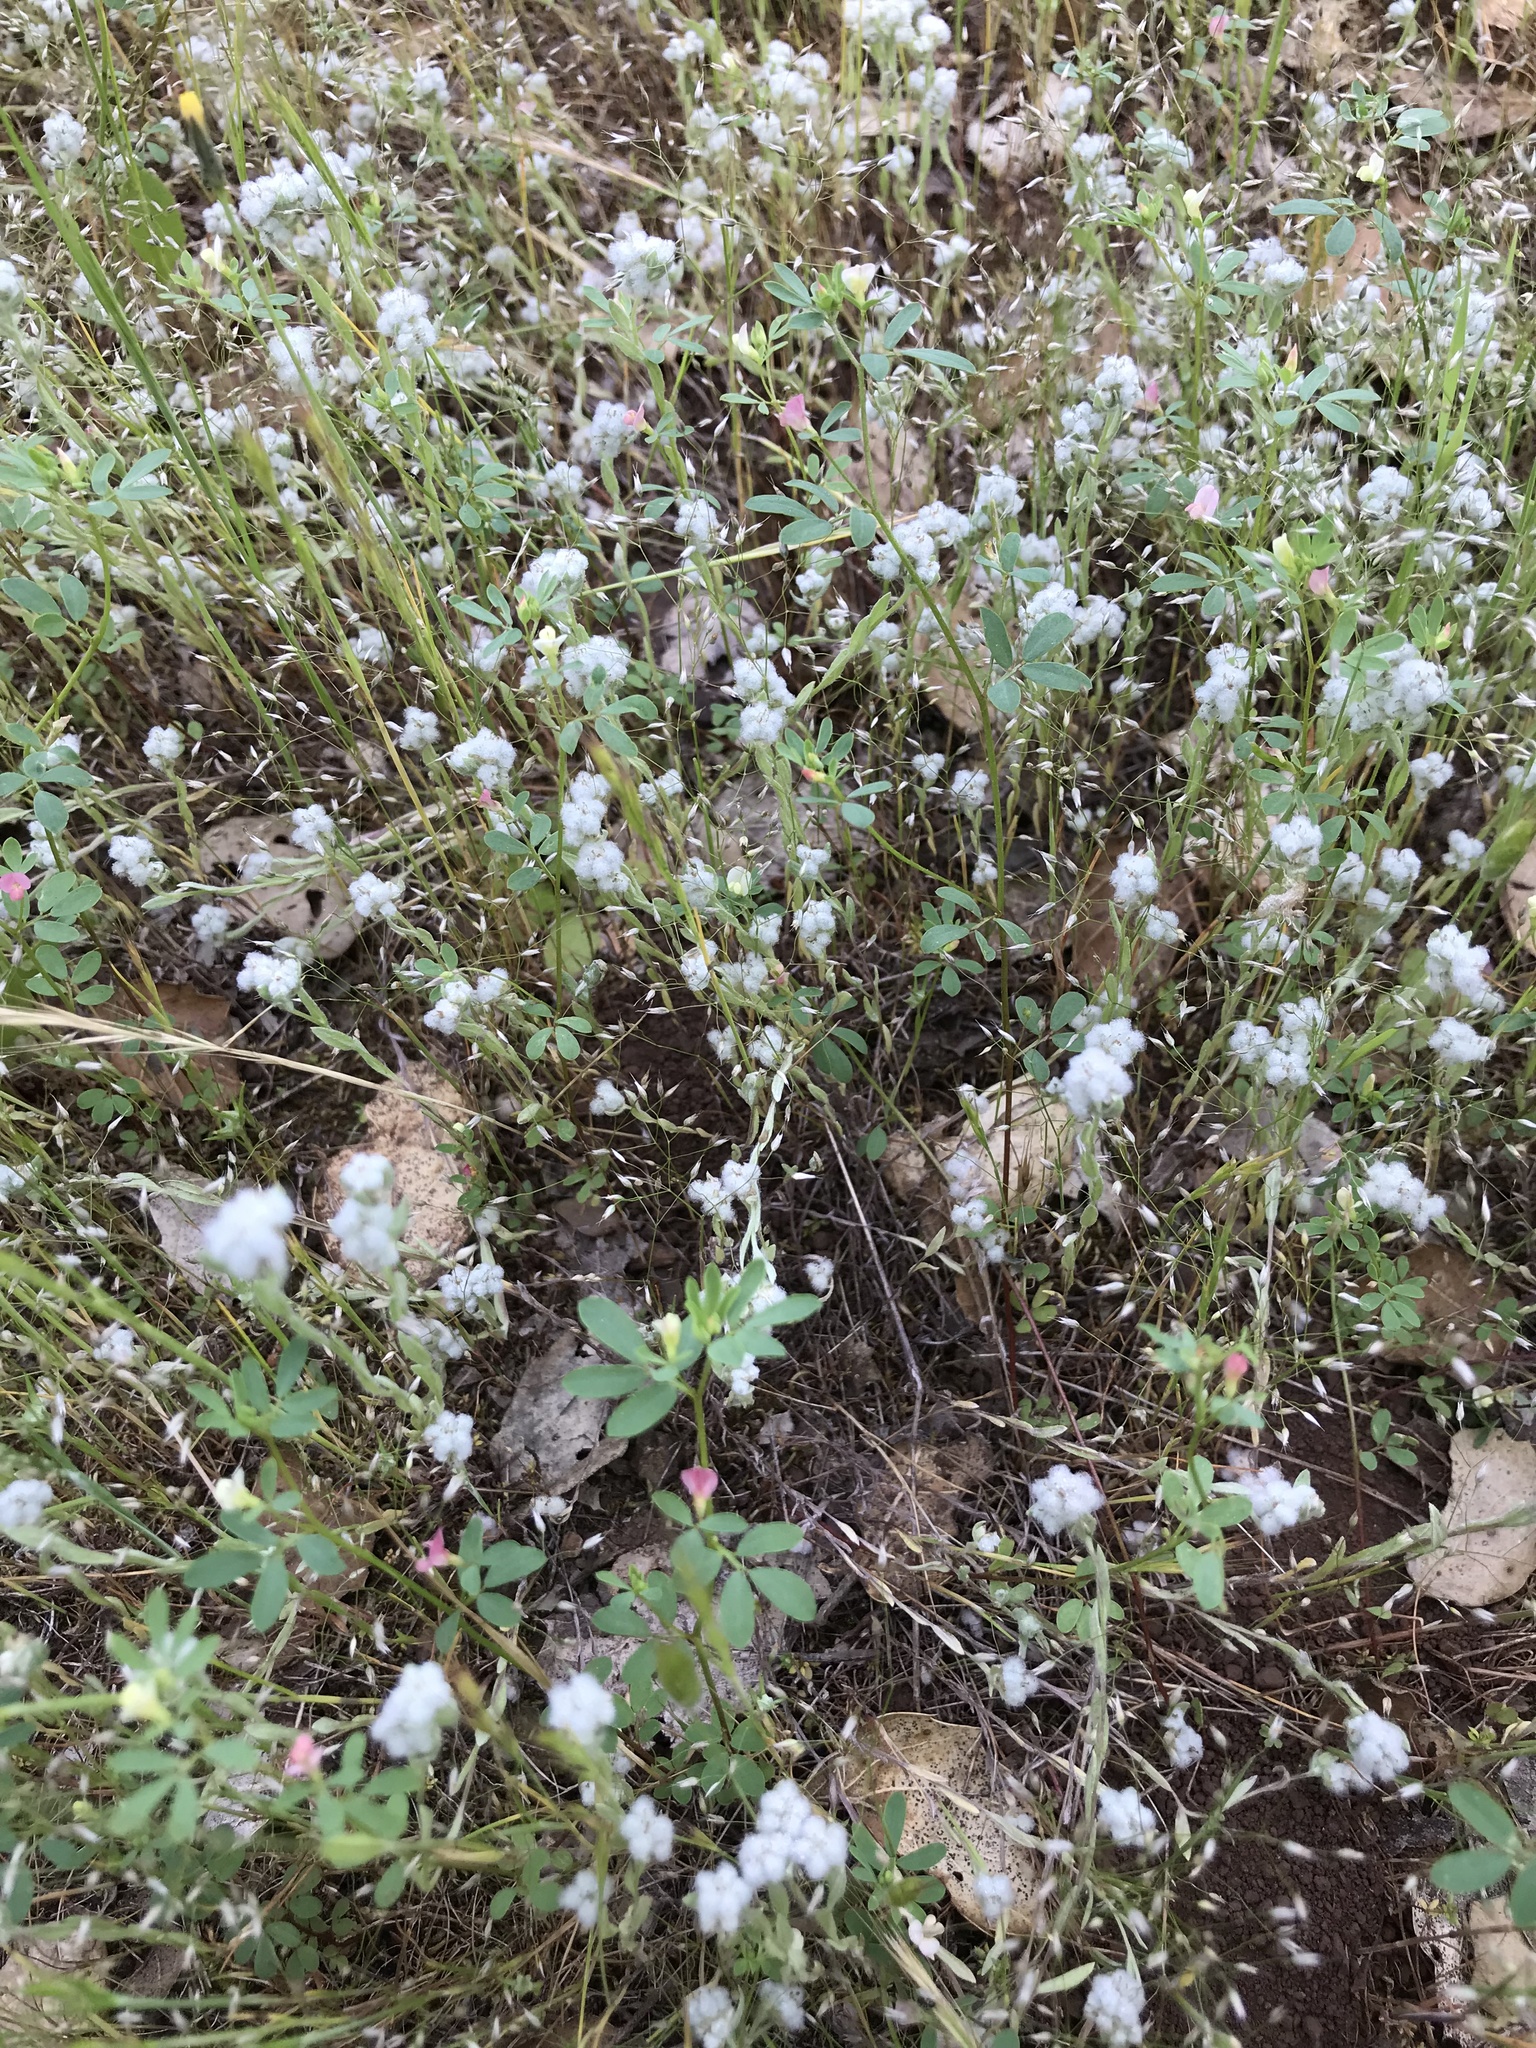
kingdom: Plantae
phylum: Tracheophyta
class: Magnoliopsida
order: Asterales
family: Asteraceae
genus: Bombycilaena
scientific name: Bombycilaena californica
